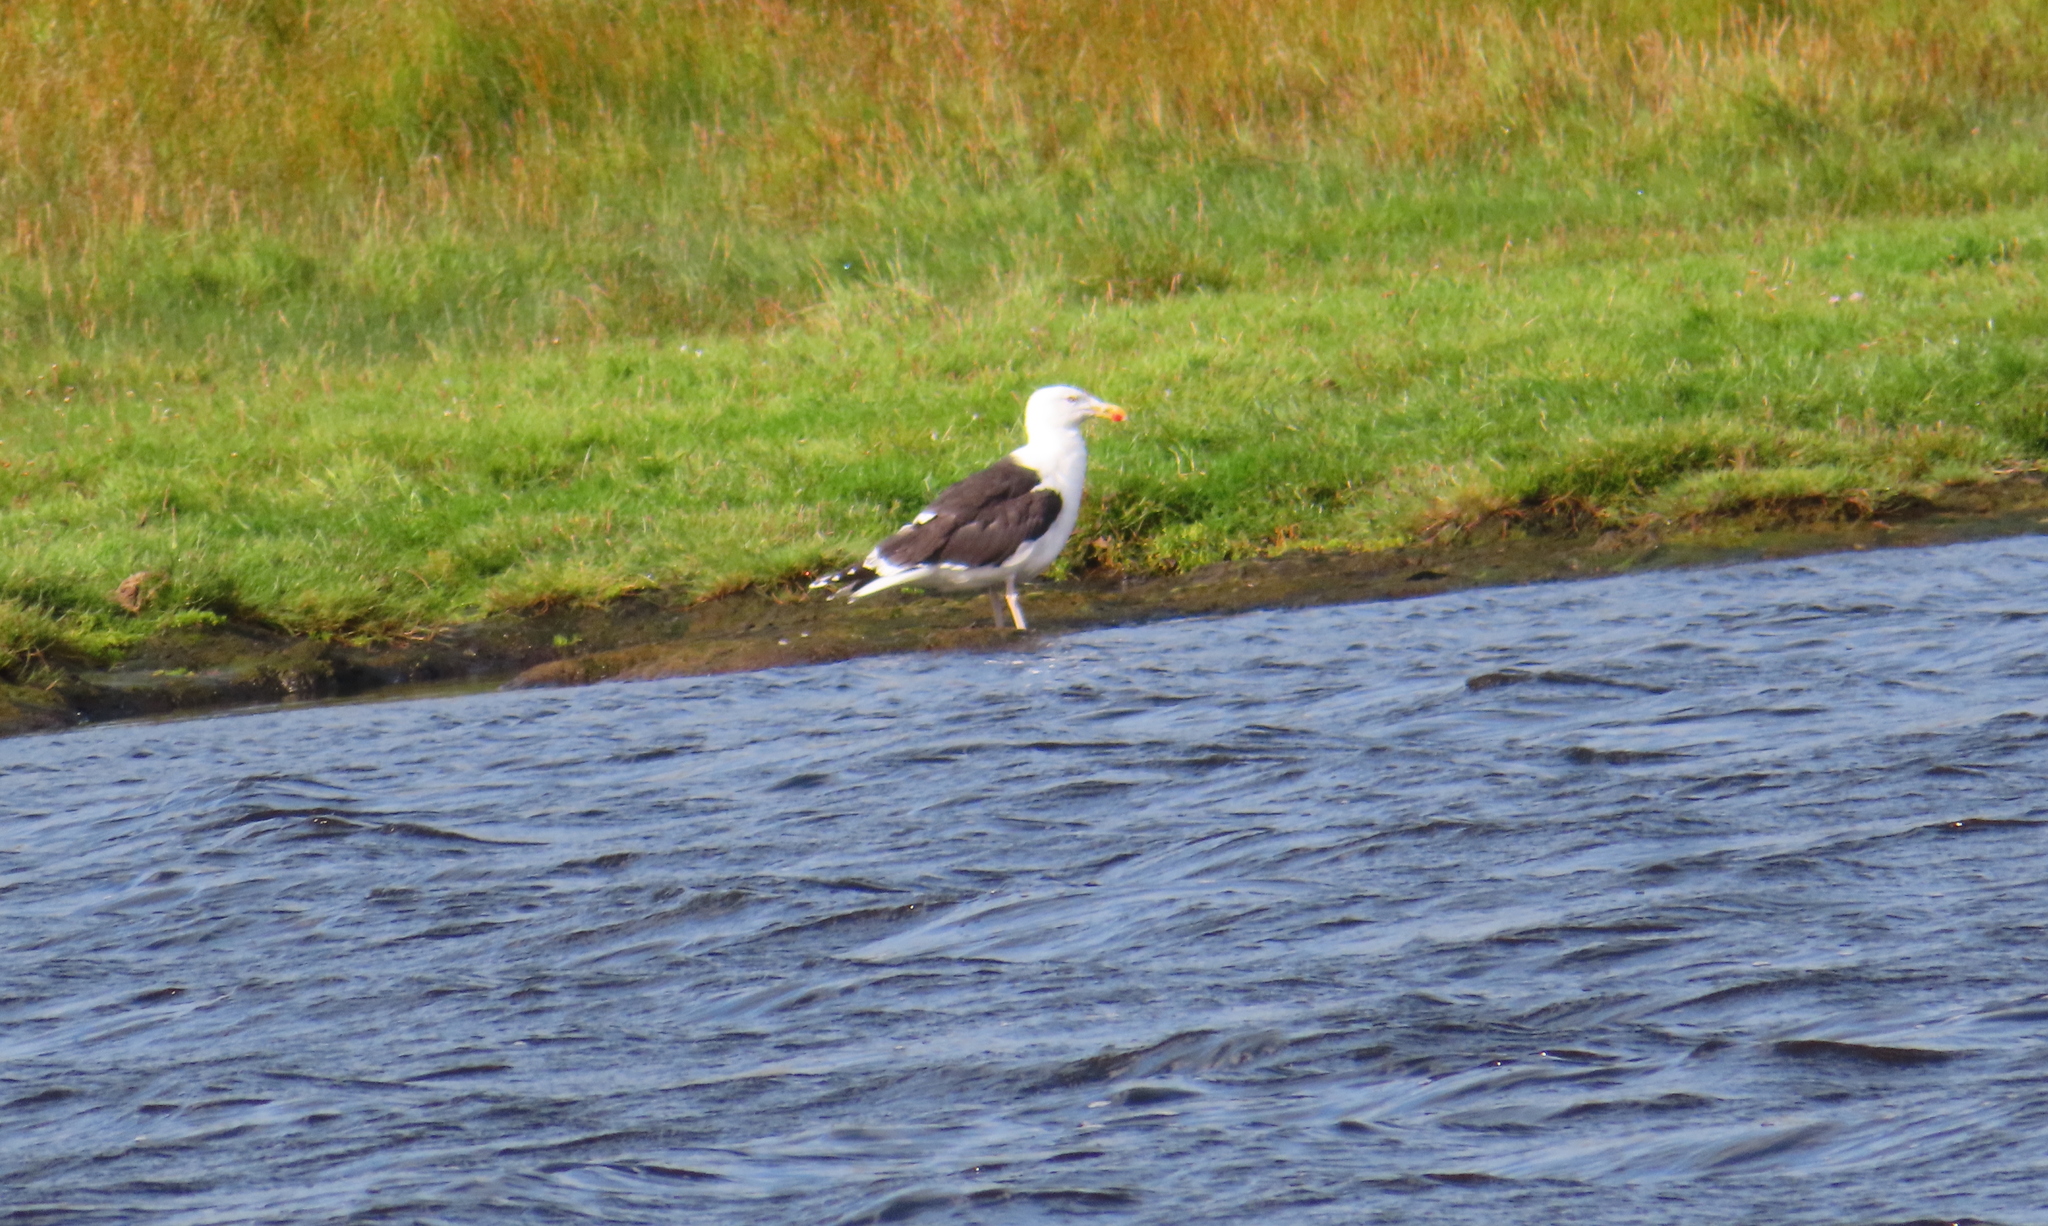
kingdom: Animalia
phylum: Chordata
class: Aves
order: Charadriiformes
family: Laridae
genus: Larus
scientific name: Larus marinus
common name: Great black-backed gull
